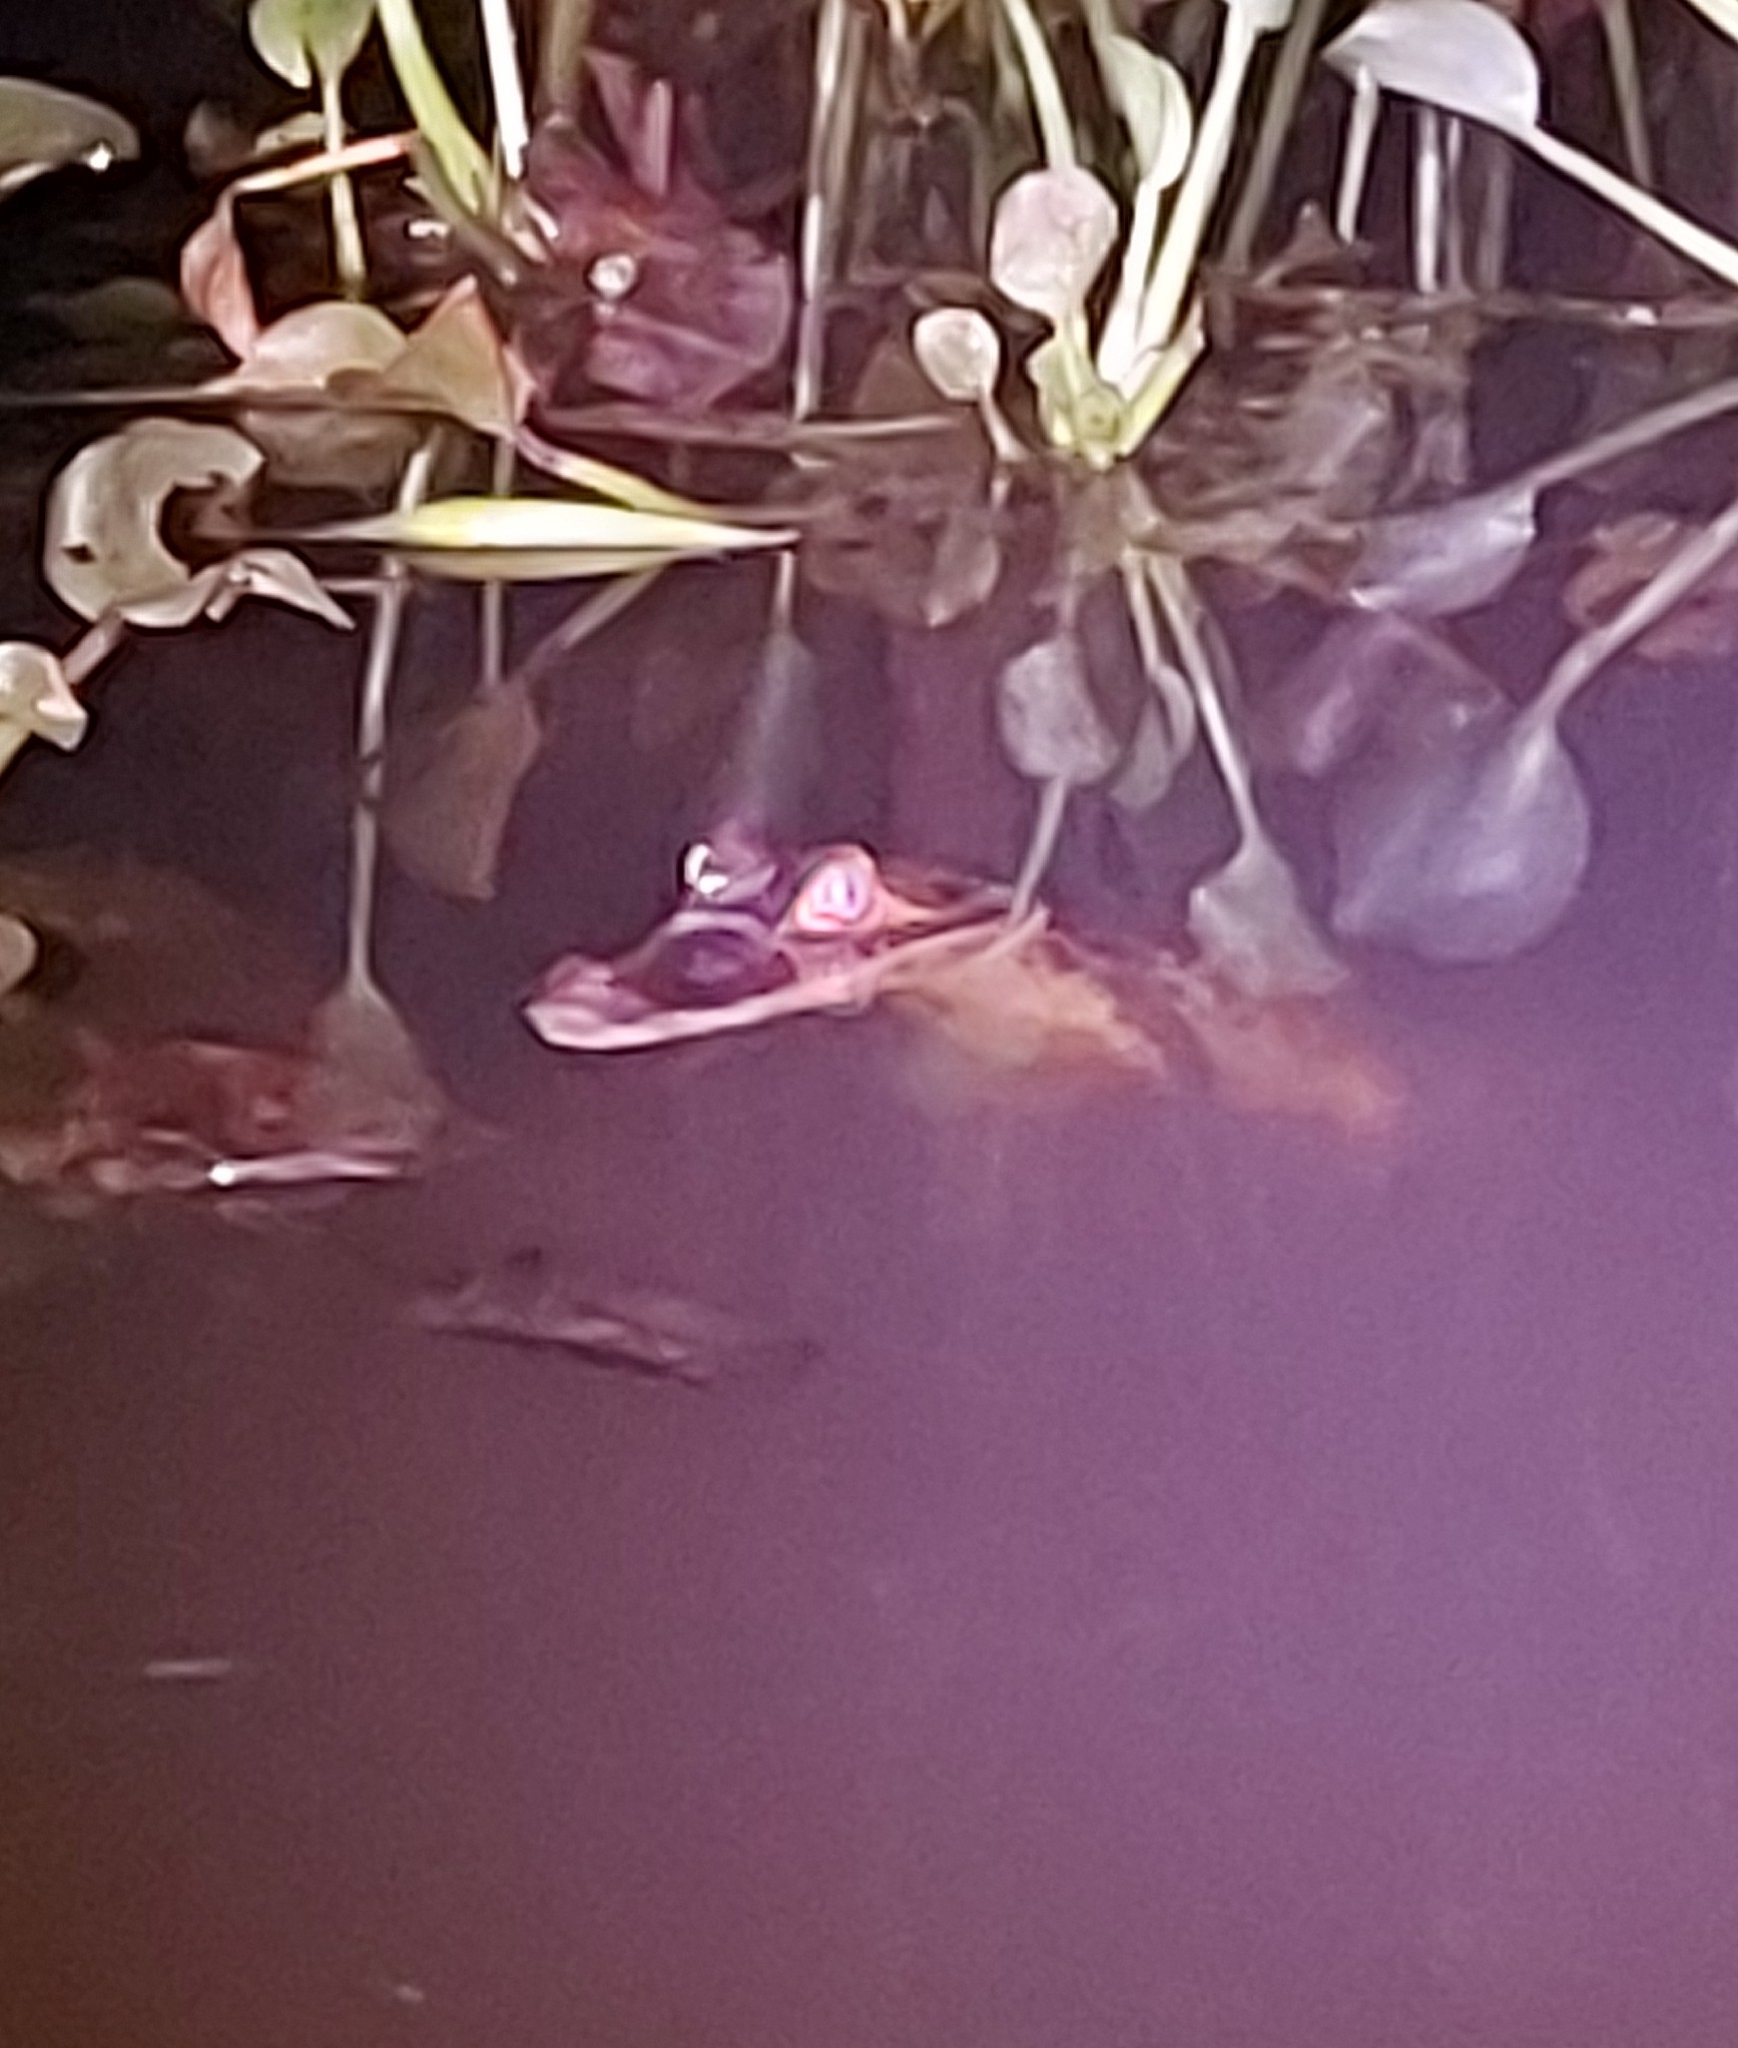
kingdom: Animalia
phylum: Chordata
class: Crocodylia
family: Alligatoridae
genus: Caiman
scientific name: Caiman crocodilus
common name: Common caiman
